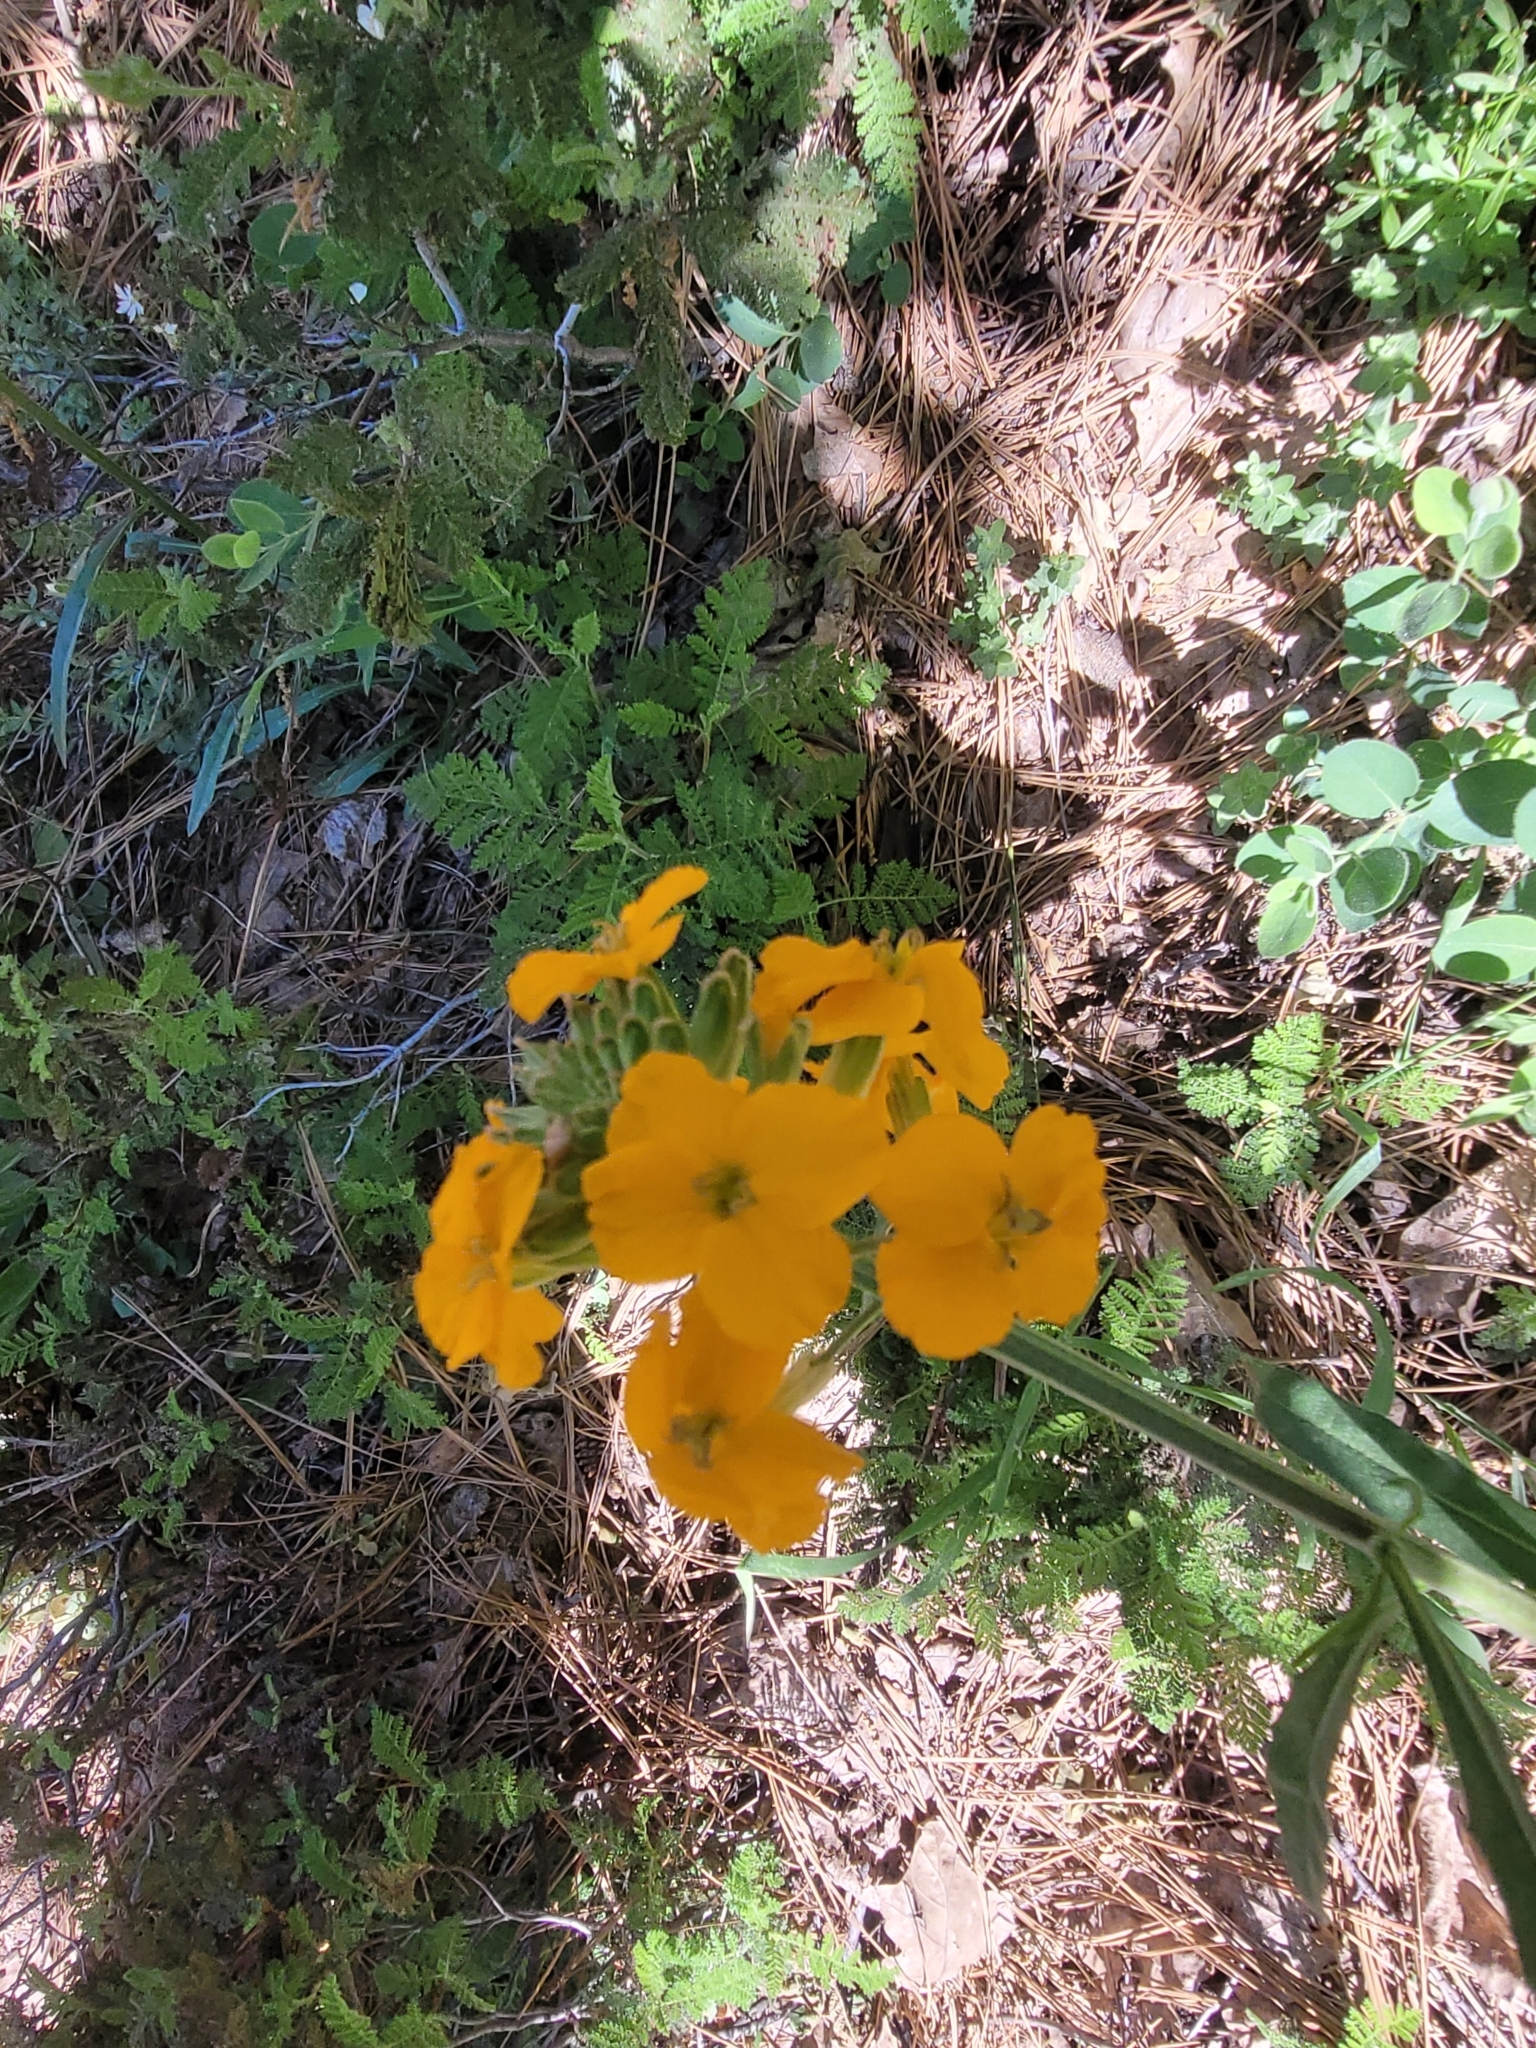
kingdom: Plantae
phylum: Tracheophyta
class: Magnoliopsida
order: Brassicales
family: Brassicaceae
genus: Erysimum
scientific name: Erysimum capitatum
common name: Western wallflower
